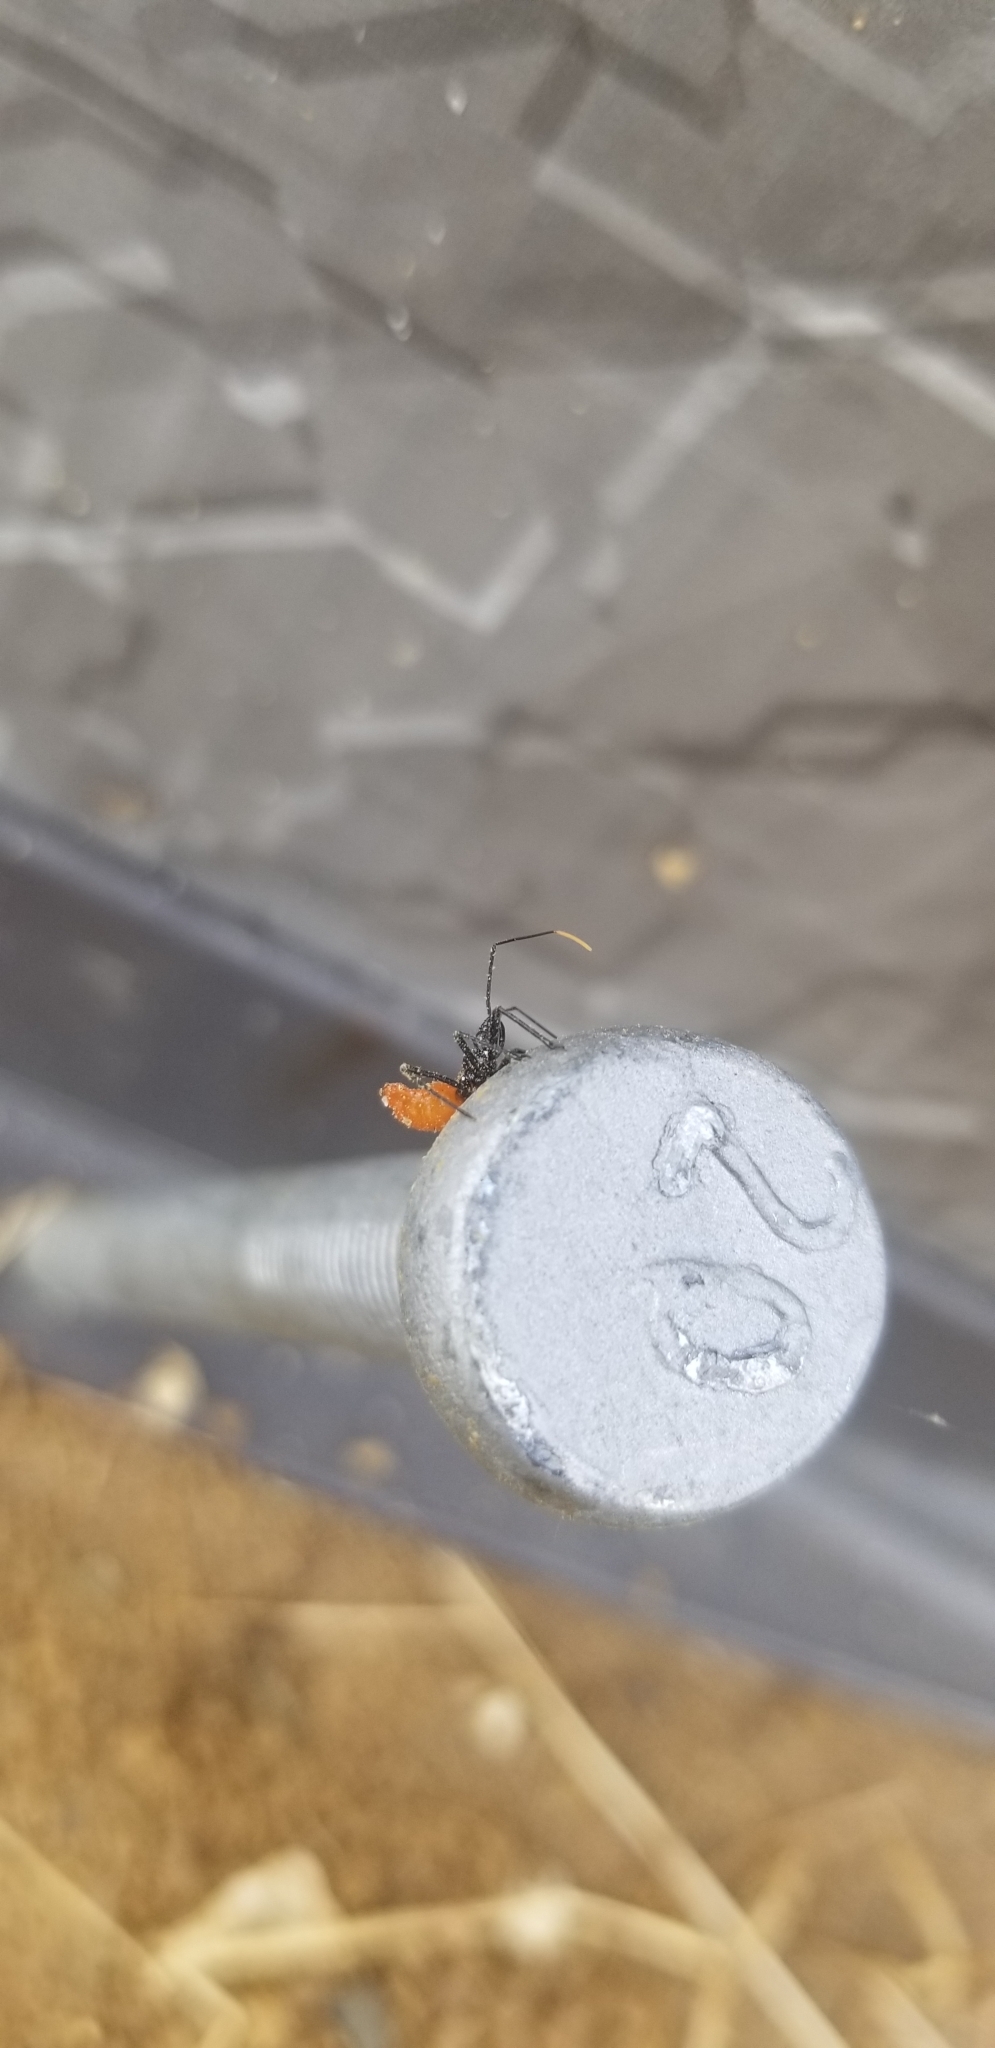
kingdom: Animalia
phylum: Arthropoda
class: Insecta
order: Hemiptera
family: Reduviidae
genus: Arilus
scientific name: Arilus cristatus
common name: North american wheel bug
